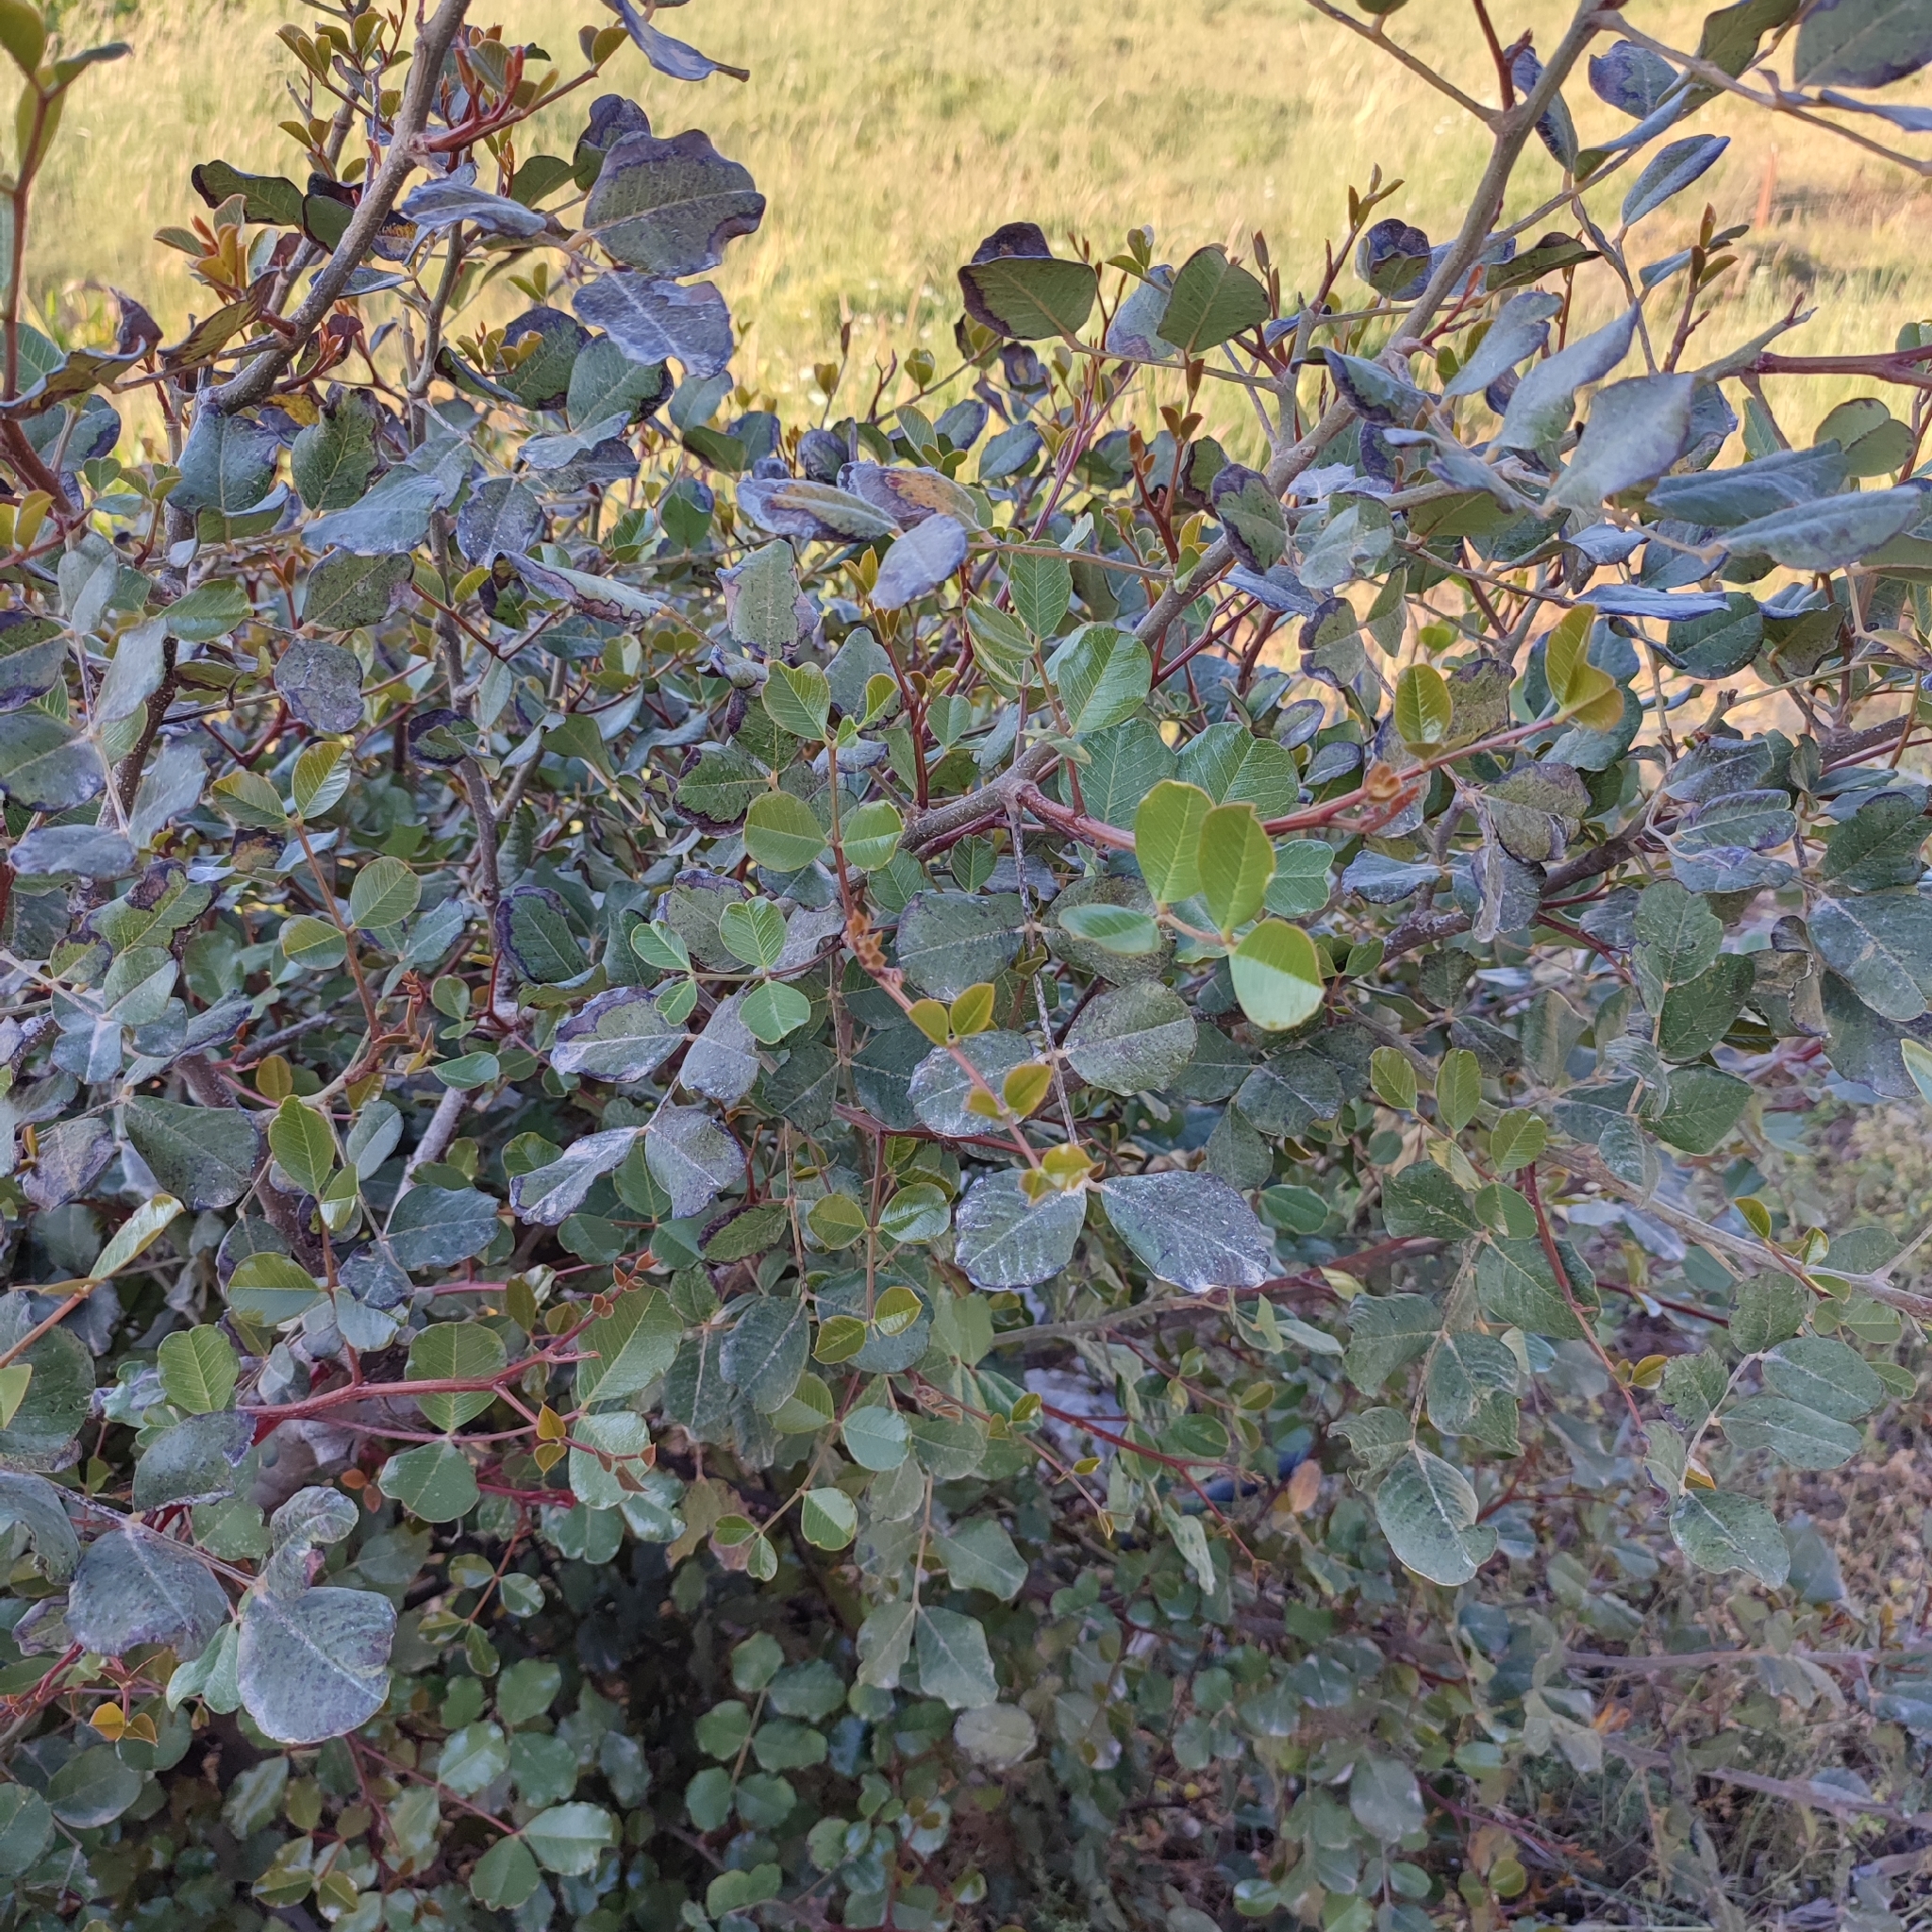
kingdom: Plantae
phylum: Tracheophyta
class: Magnoliopsida
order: Fabales
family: Fabaceae
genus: Ceratonia
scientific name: Ceratonia siliqua
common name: Carob
